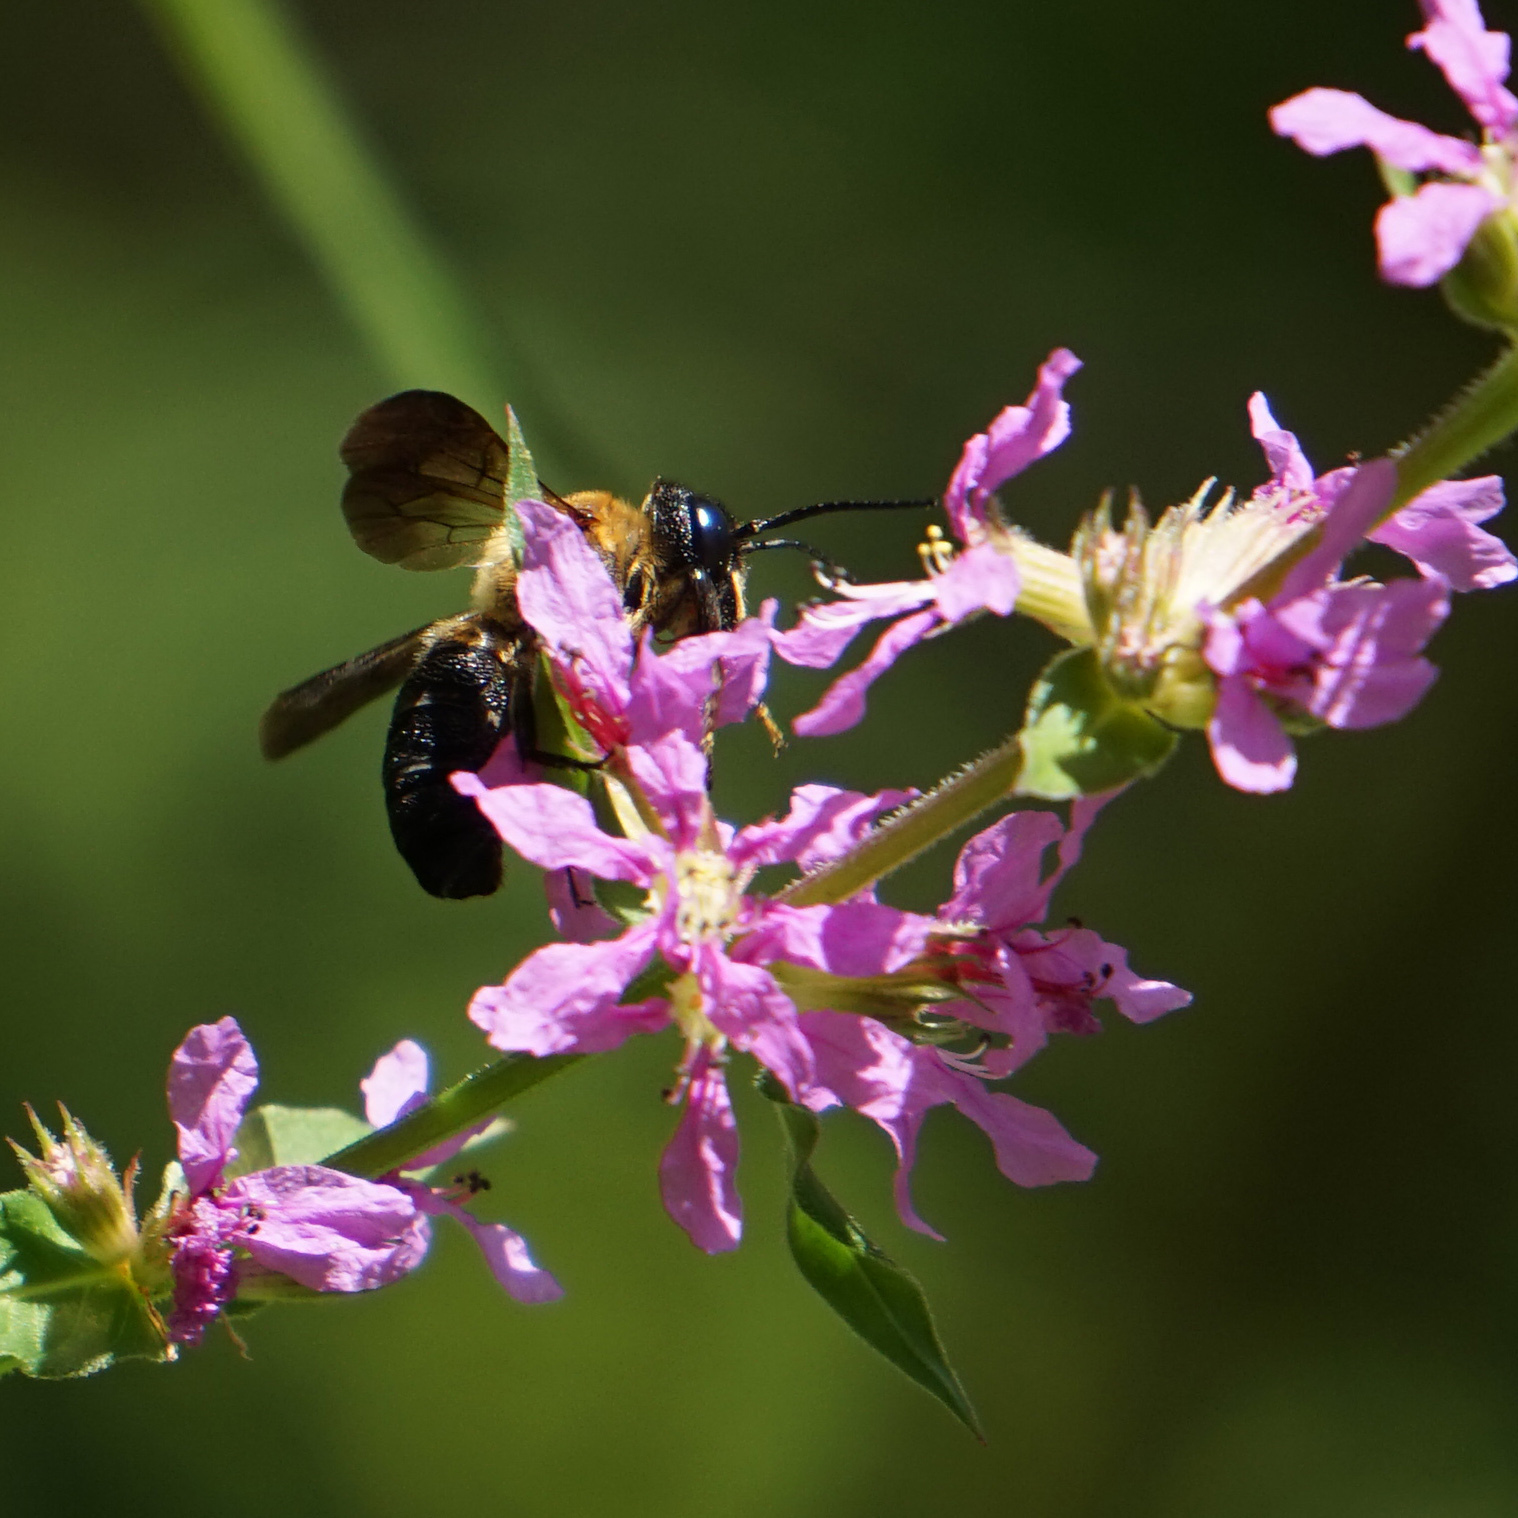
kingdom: Animalia
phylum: Arthropoda
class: Insecta
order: Hymenoptera
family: Megachilidae
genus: Megachile
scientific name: Megachile sculpturalis
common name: Sculptured resin bee
